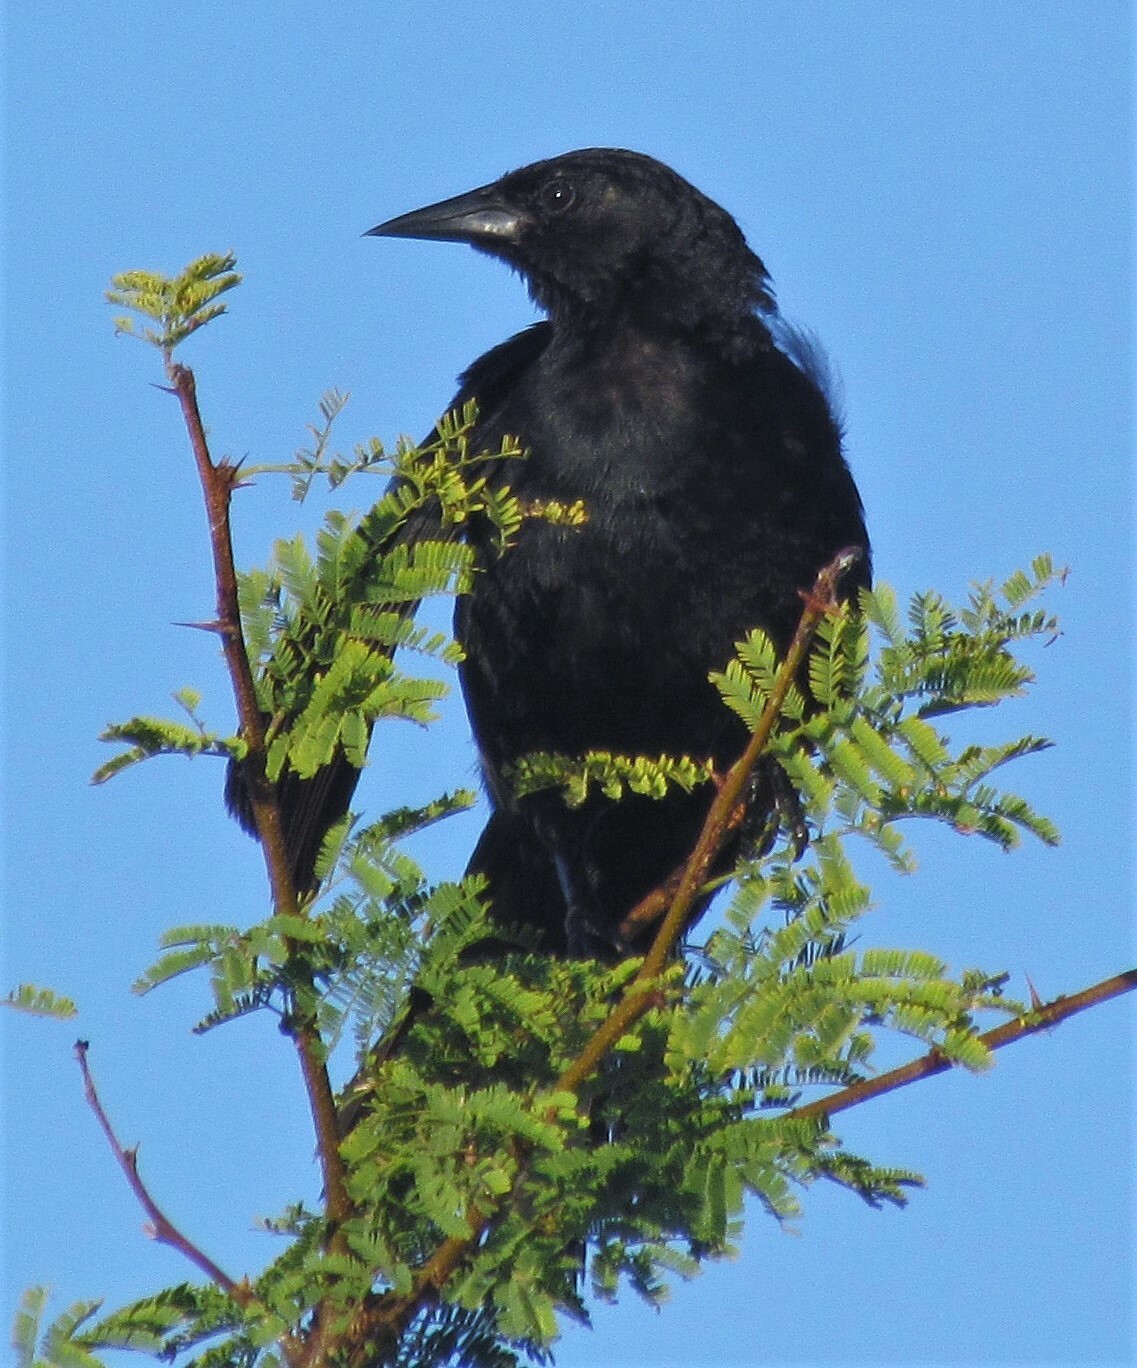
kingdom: Animalia
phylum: Chordata
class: Aves
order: Passeriformes
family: Icteridae
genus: Agelasticus
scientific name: Agelasticus cyanopus
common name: Unicolored blackbird
